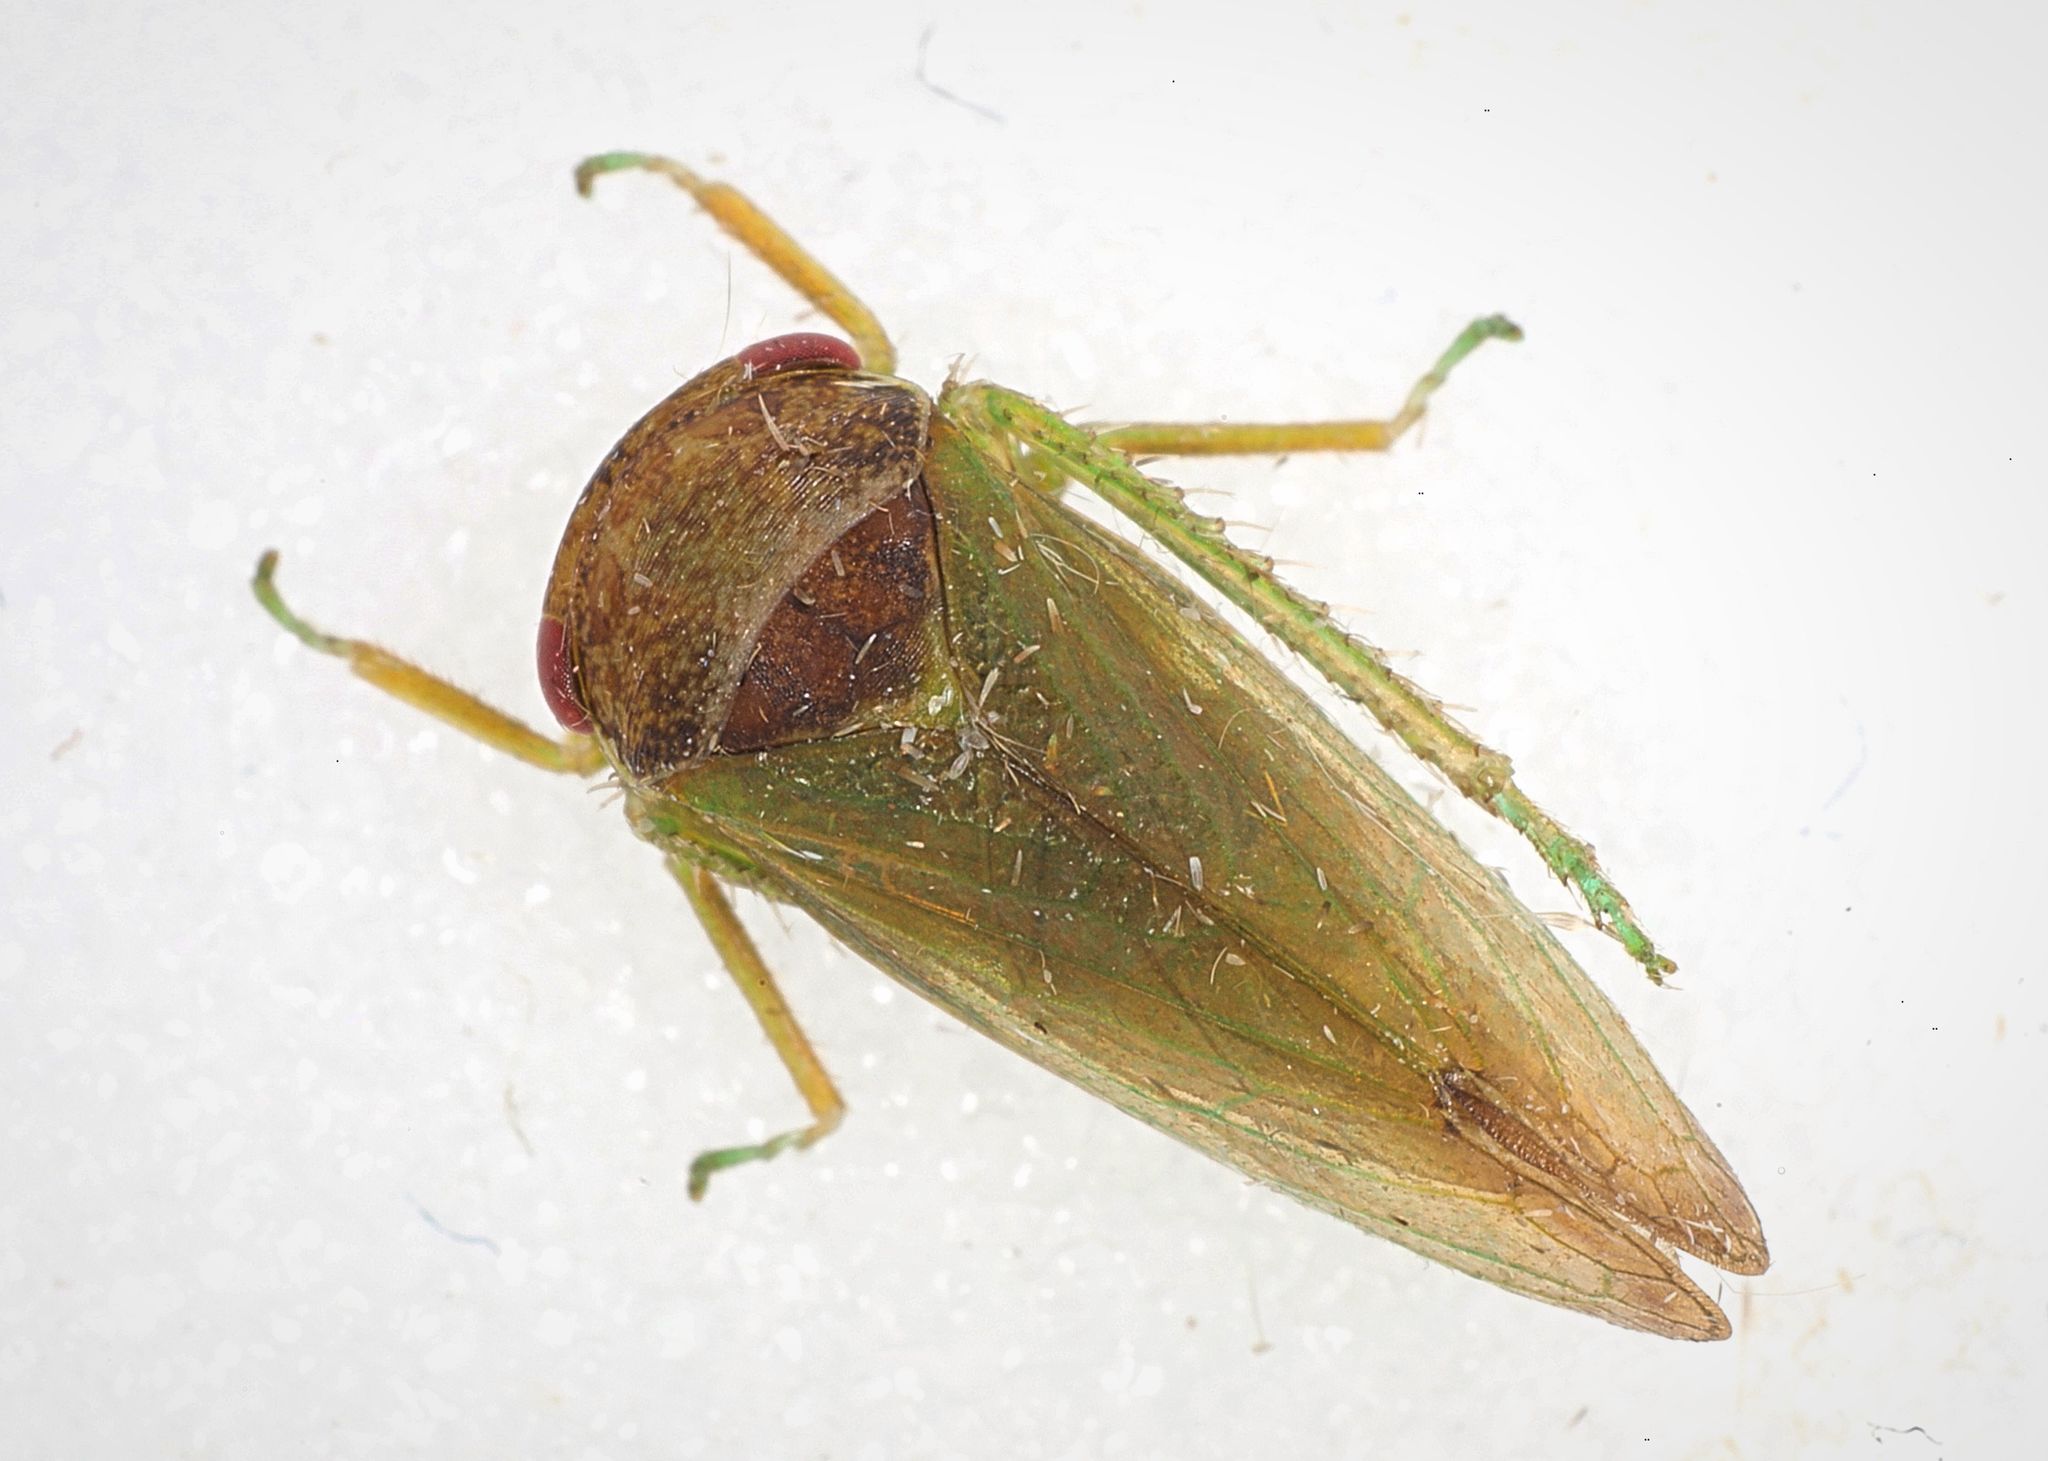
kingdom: Animalia
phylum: Arthropoda
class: Insecta
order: Hemiptera
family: Cicadellidae
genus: Iassus
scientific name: Iassus lanio
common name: Leafhopper
